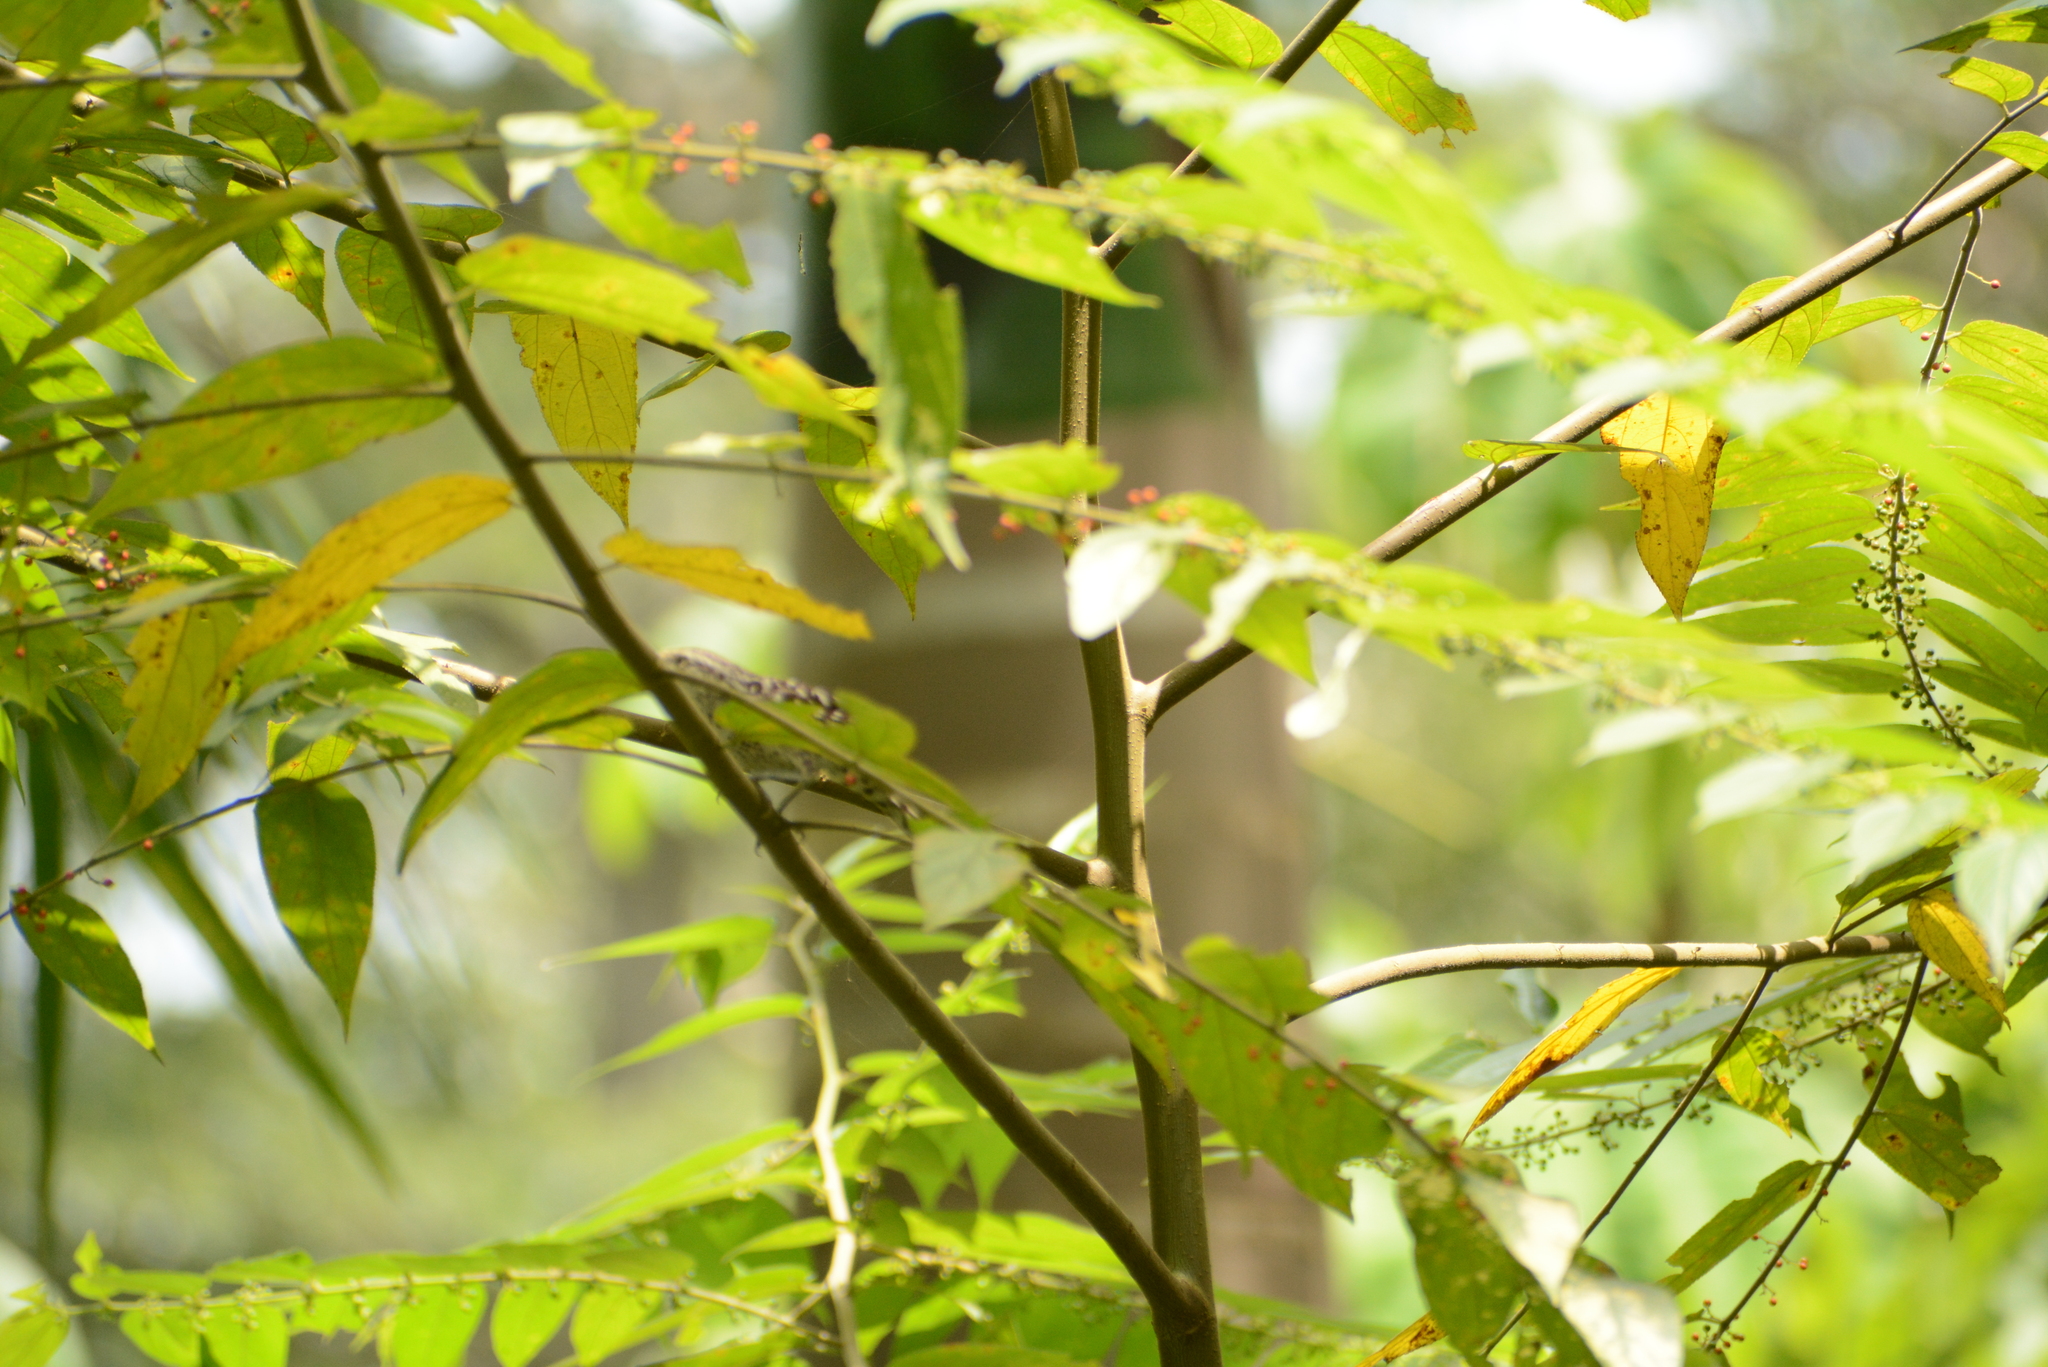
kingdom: Plantae
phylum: Tracheophyta
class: Magnoliopsida
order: Rosales
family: Cannabaceae
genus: Trema
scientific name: Trema micranthum
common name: Jamaican nettletree
